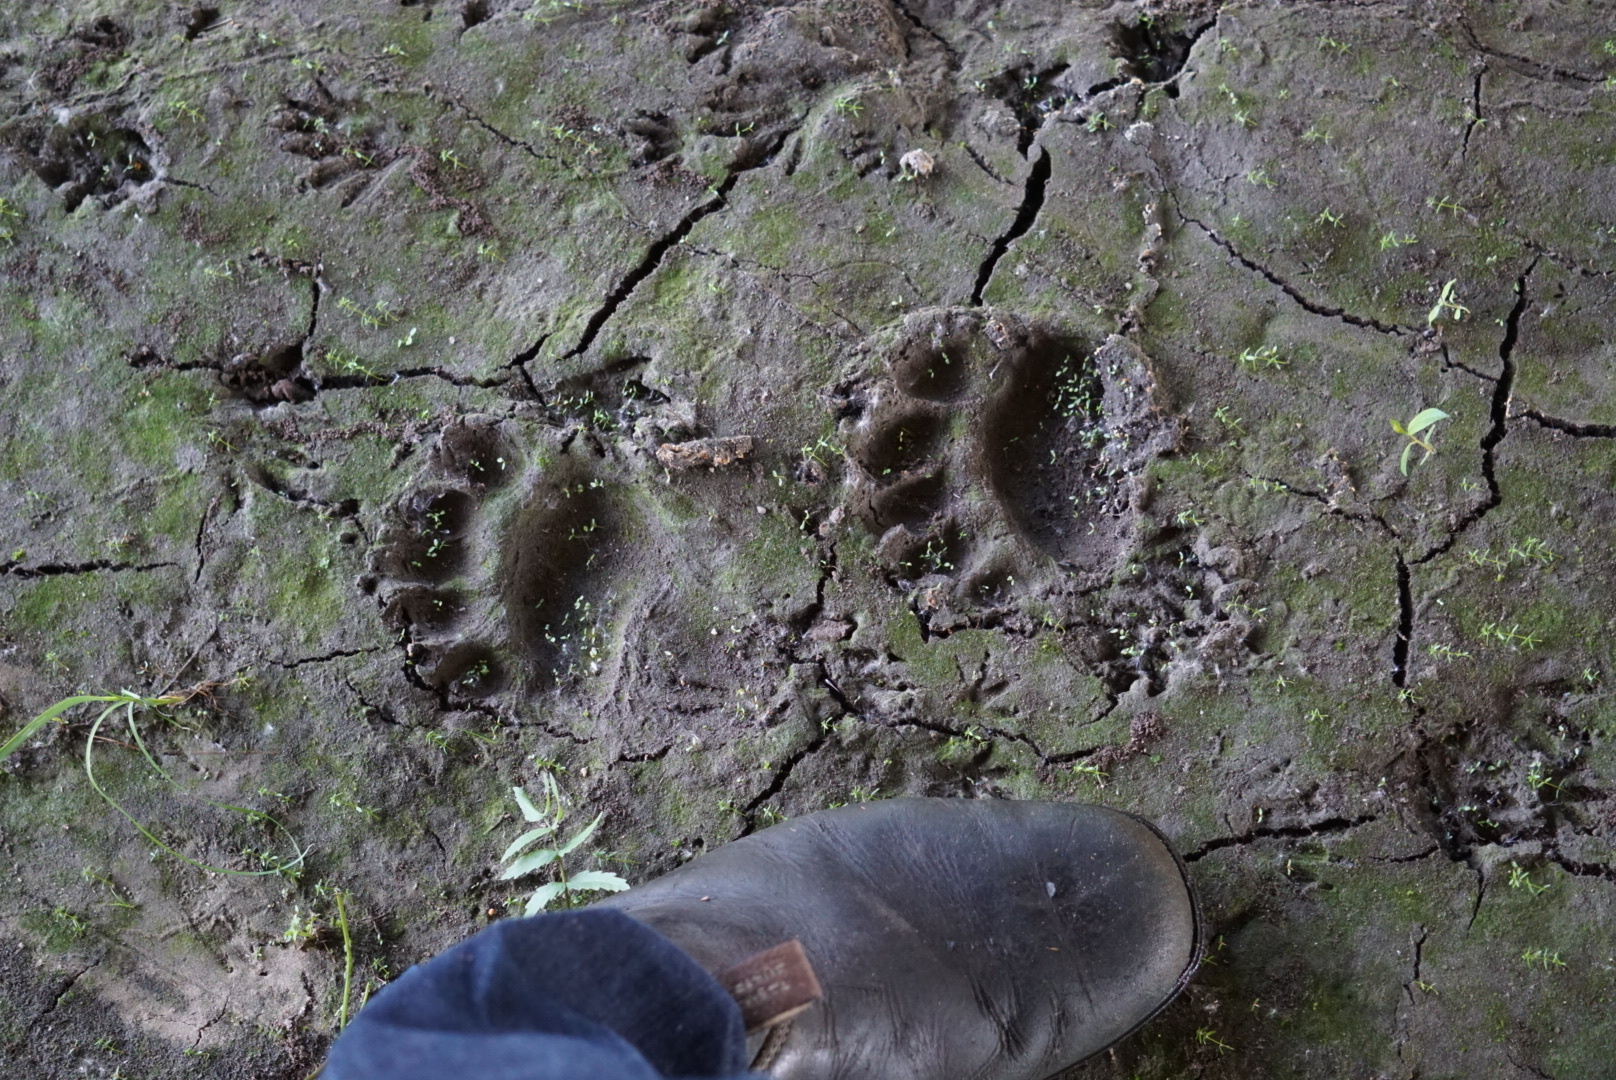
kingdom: Animalia
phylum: Chordata
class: Mammalia
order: Carnivora
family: Ursidae
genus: Ursus
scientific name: Ursus americanus
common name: American black bear
